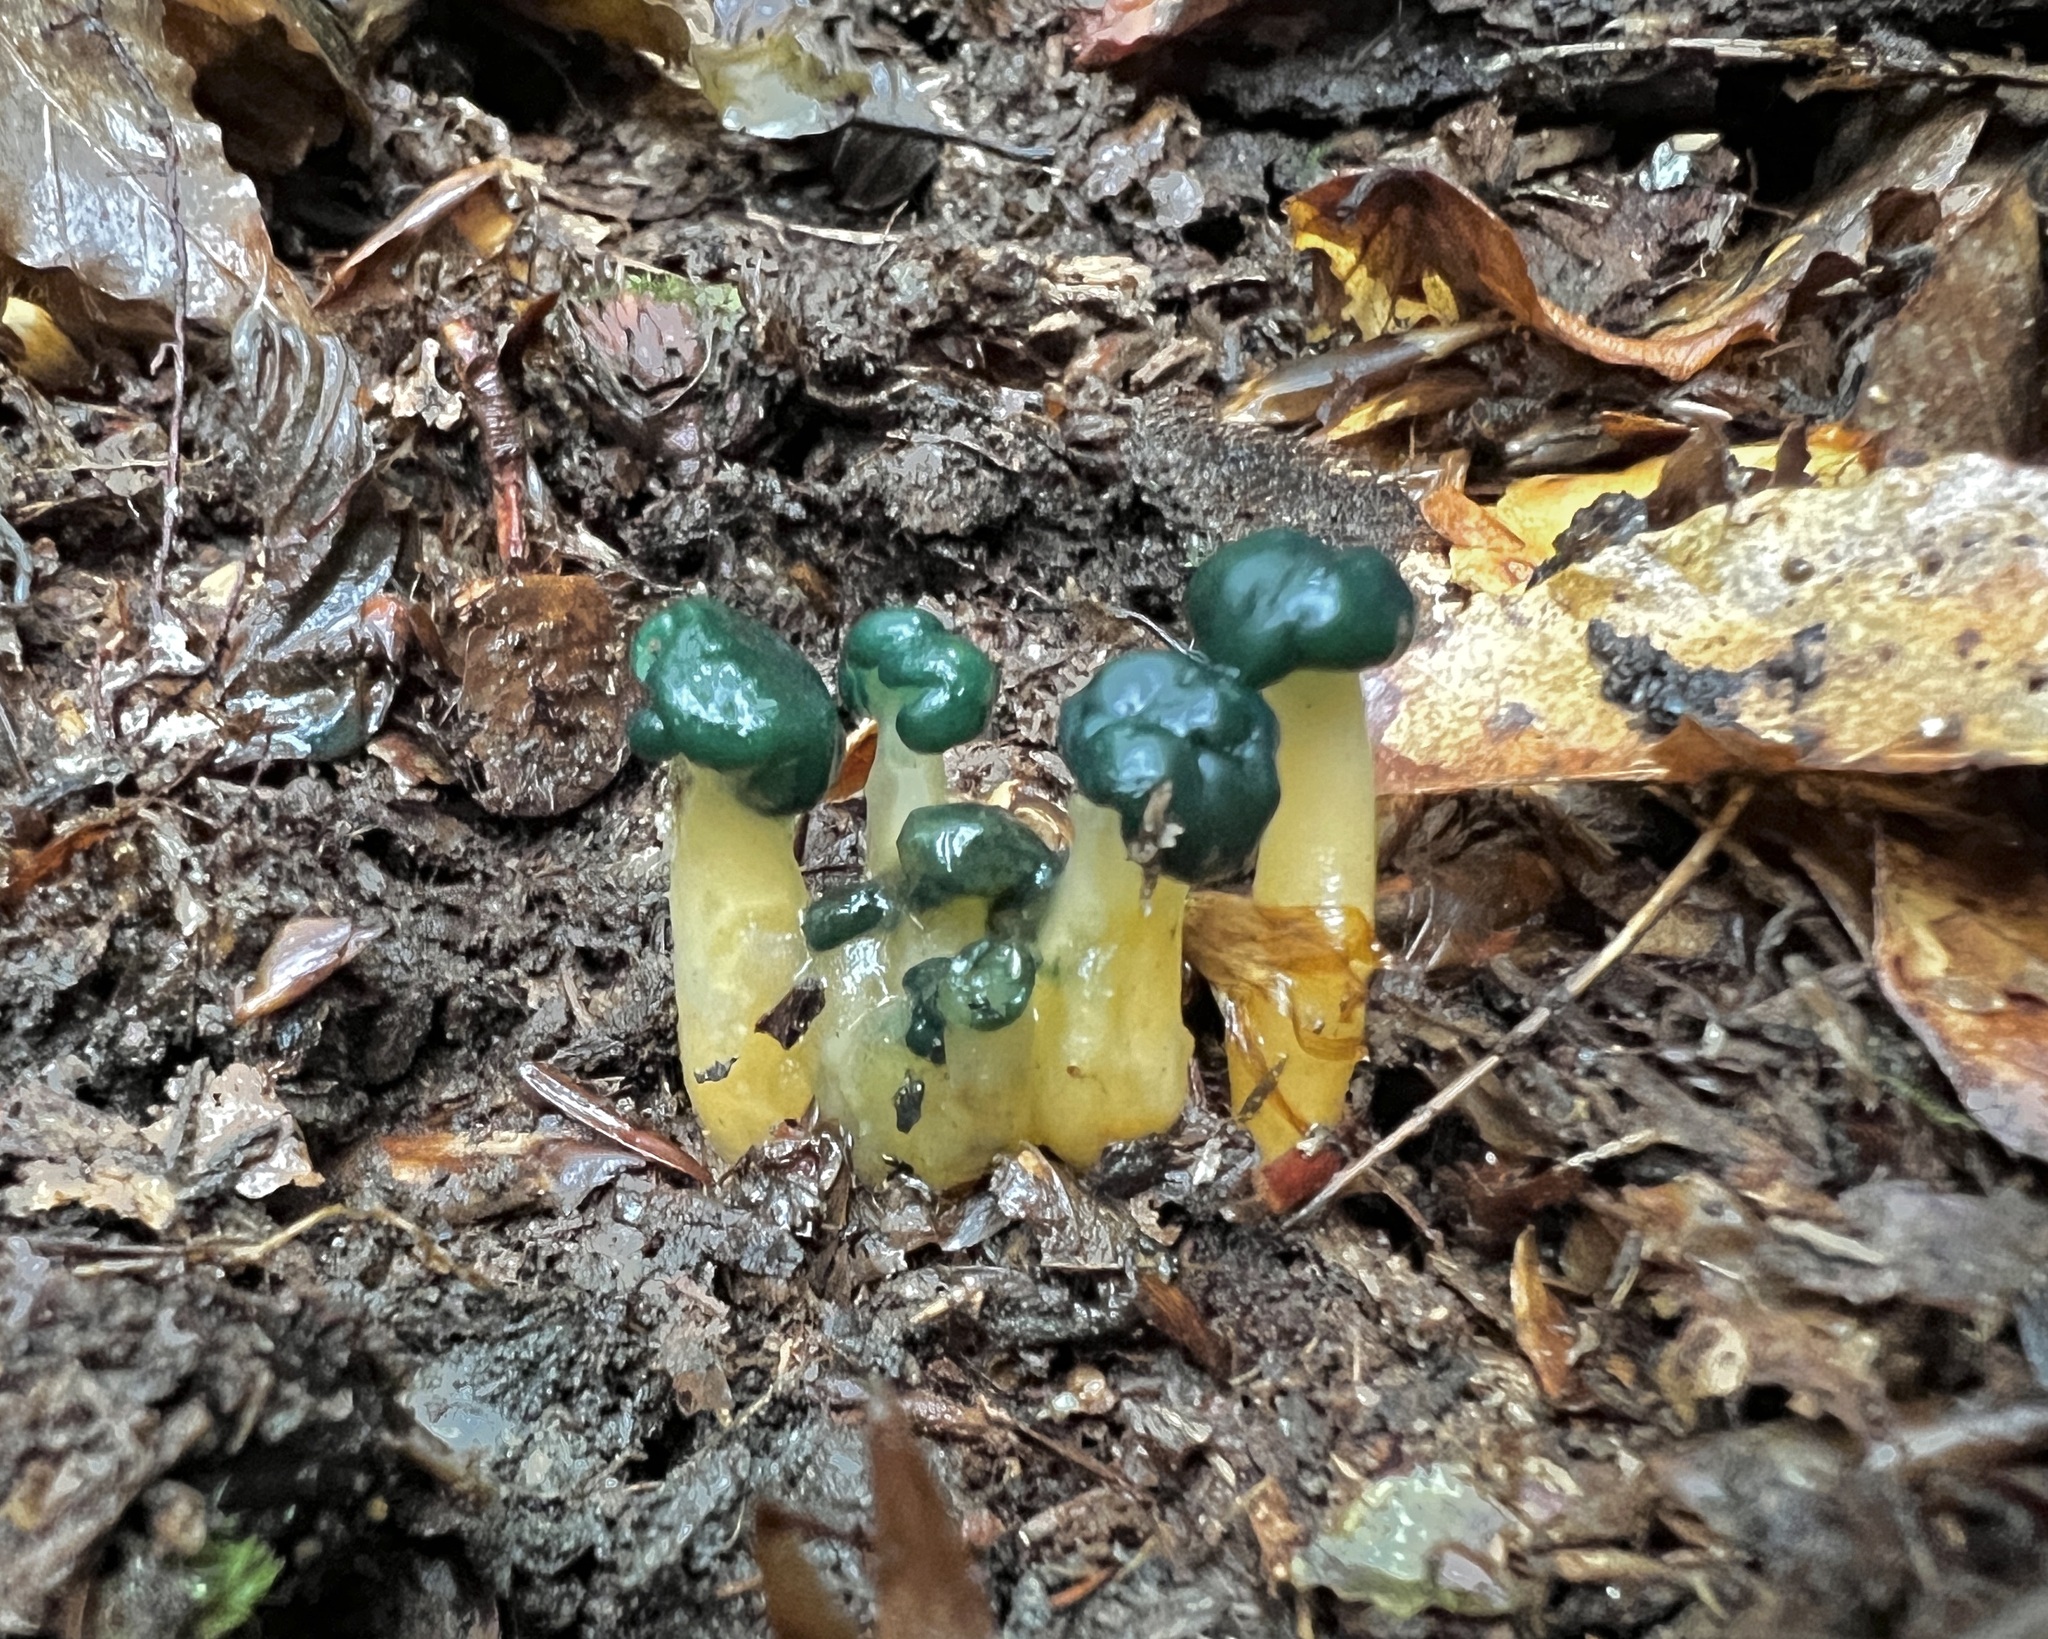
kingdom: Fungi
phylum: Ascomycota
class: Leotiomycetes
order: Leotiales
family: Leotiaceae
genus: Leotia
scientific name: Leotia lubrica
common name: Jellybaby
